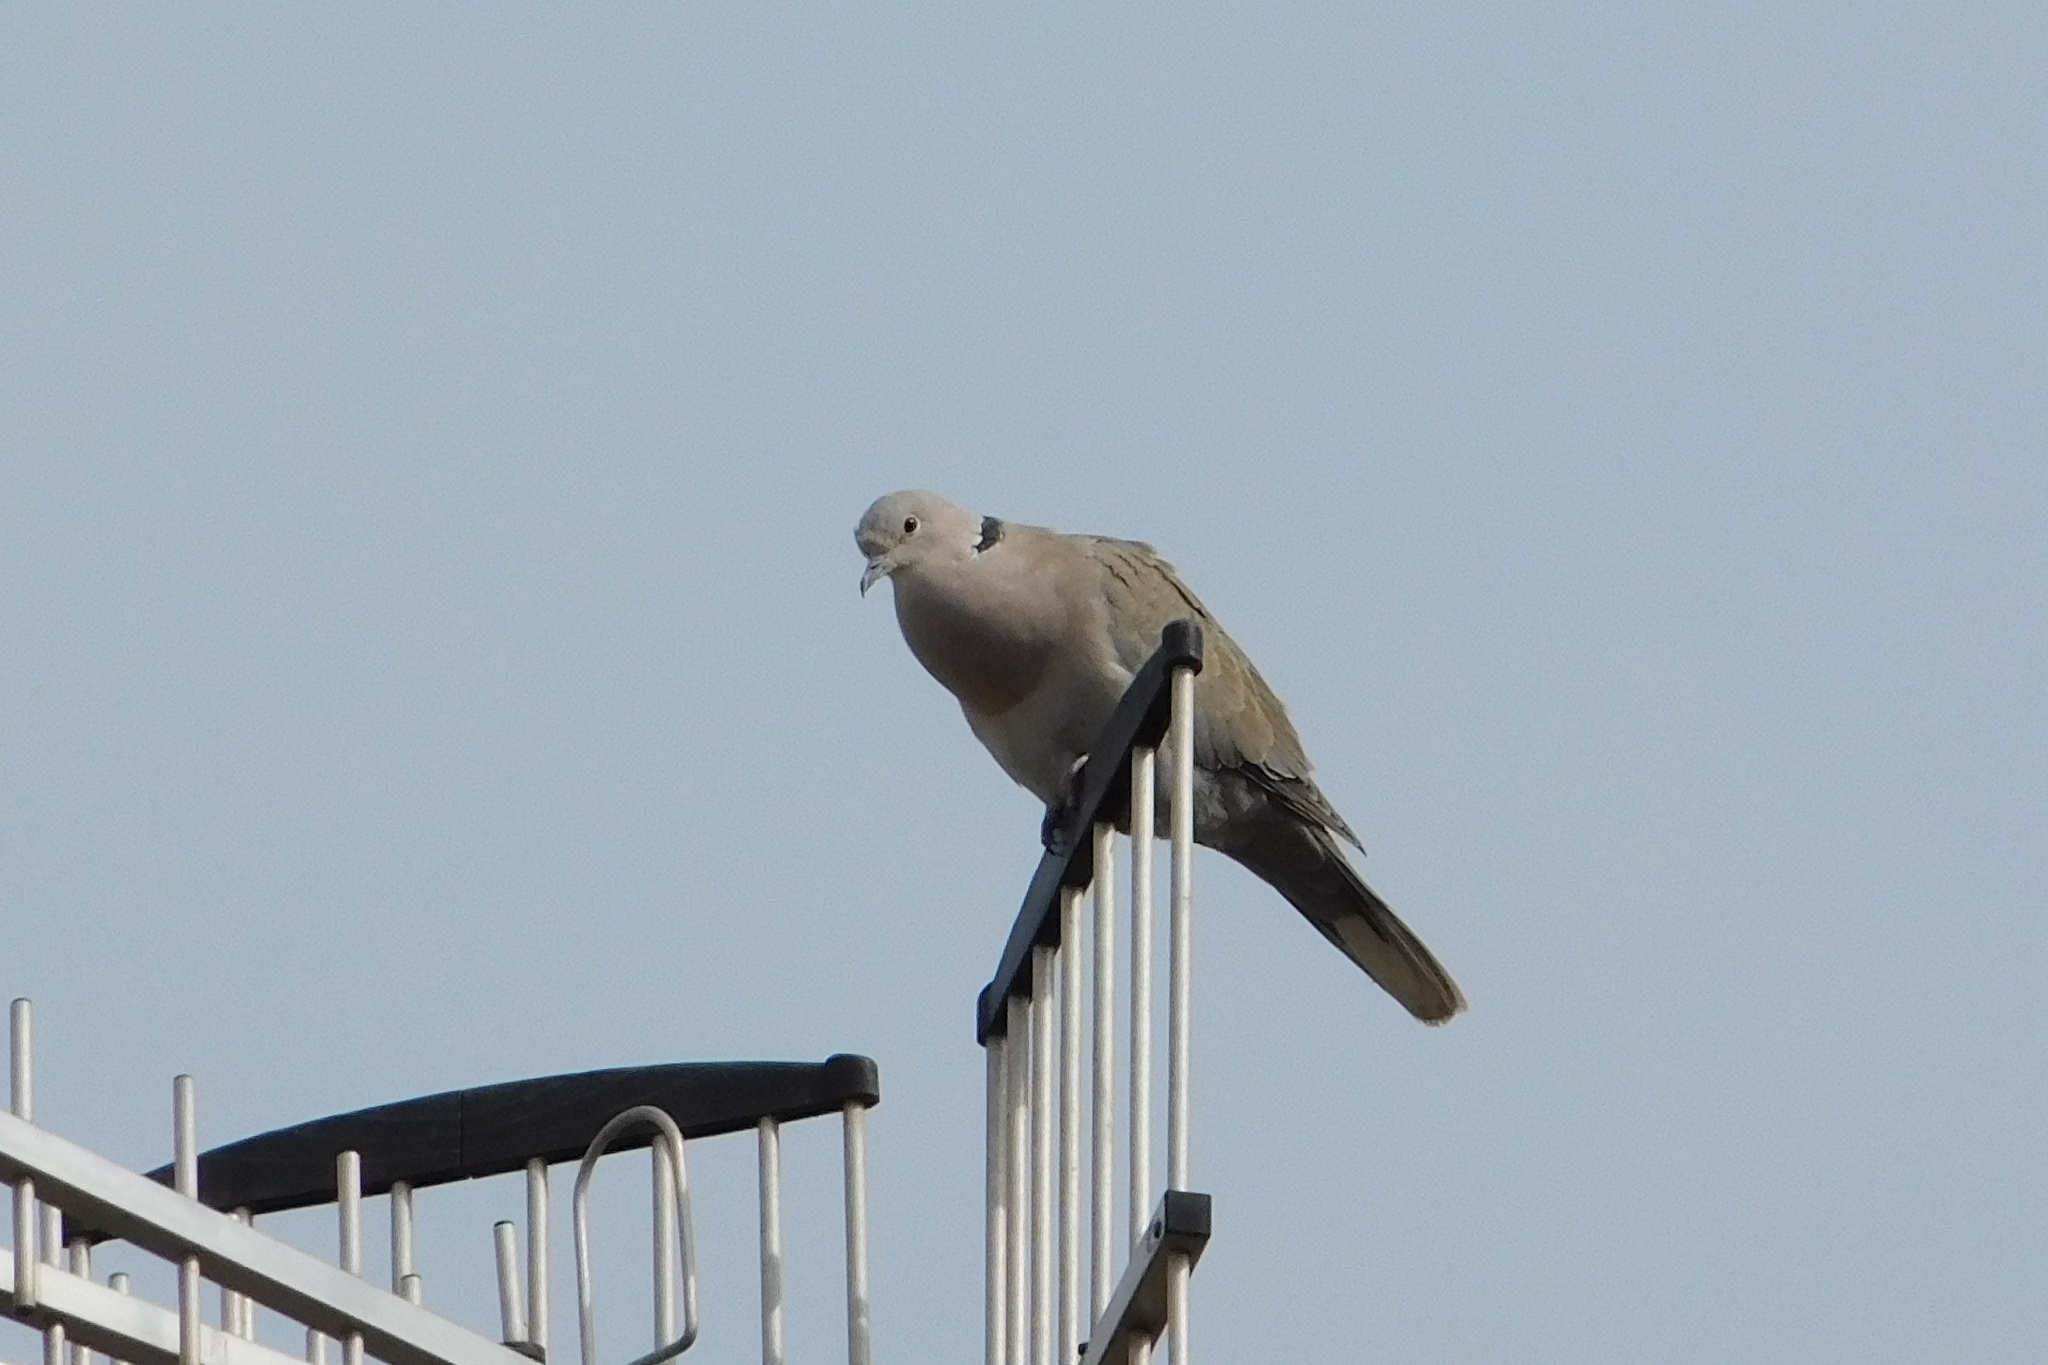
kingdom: Animalia
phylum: Chordata
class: Aves
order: Columbiformes
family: Columbidae
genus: Streptopelia
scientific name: Streptopelia decaocto
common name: Eurasian collared dove
